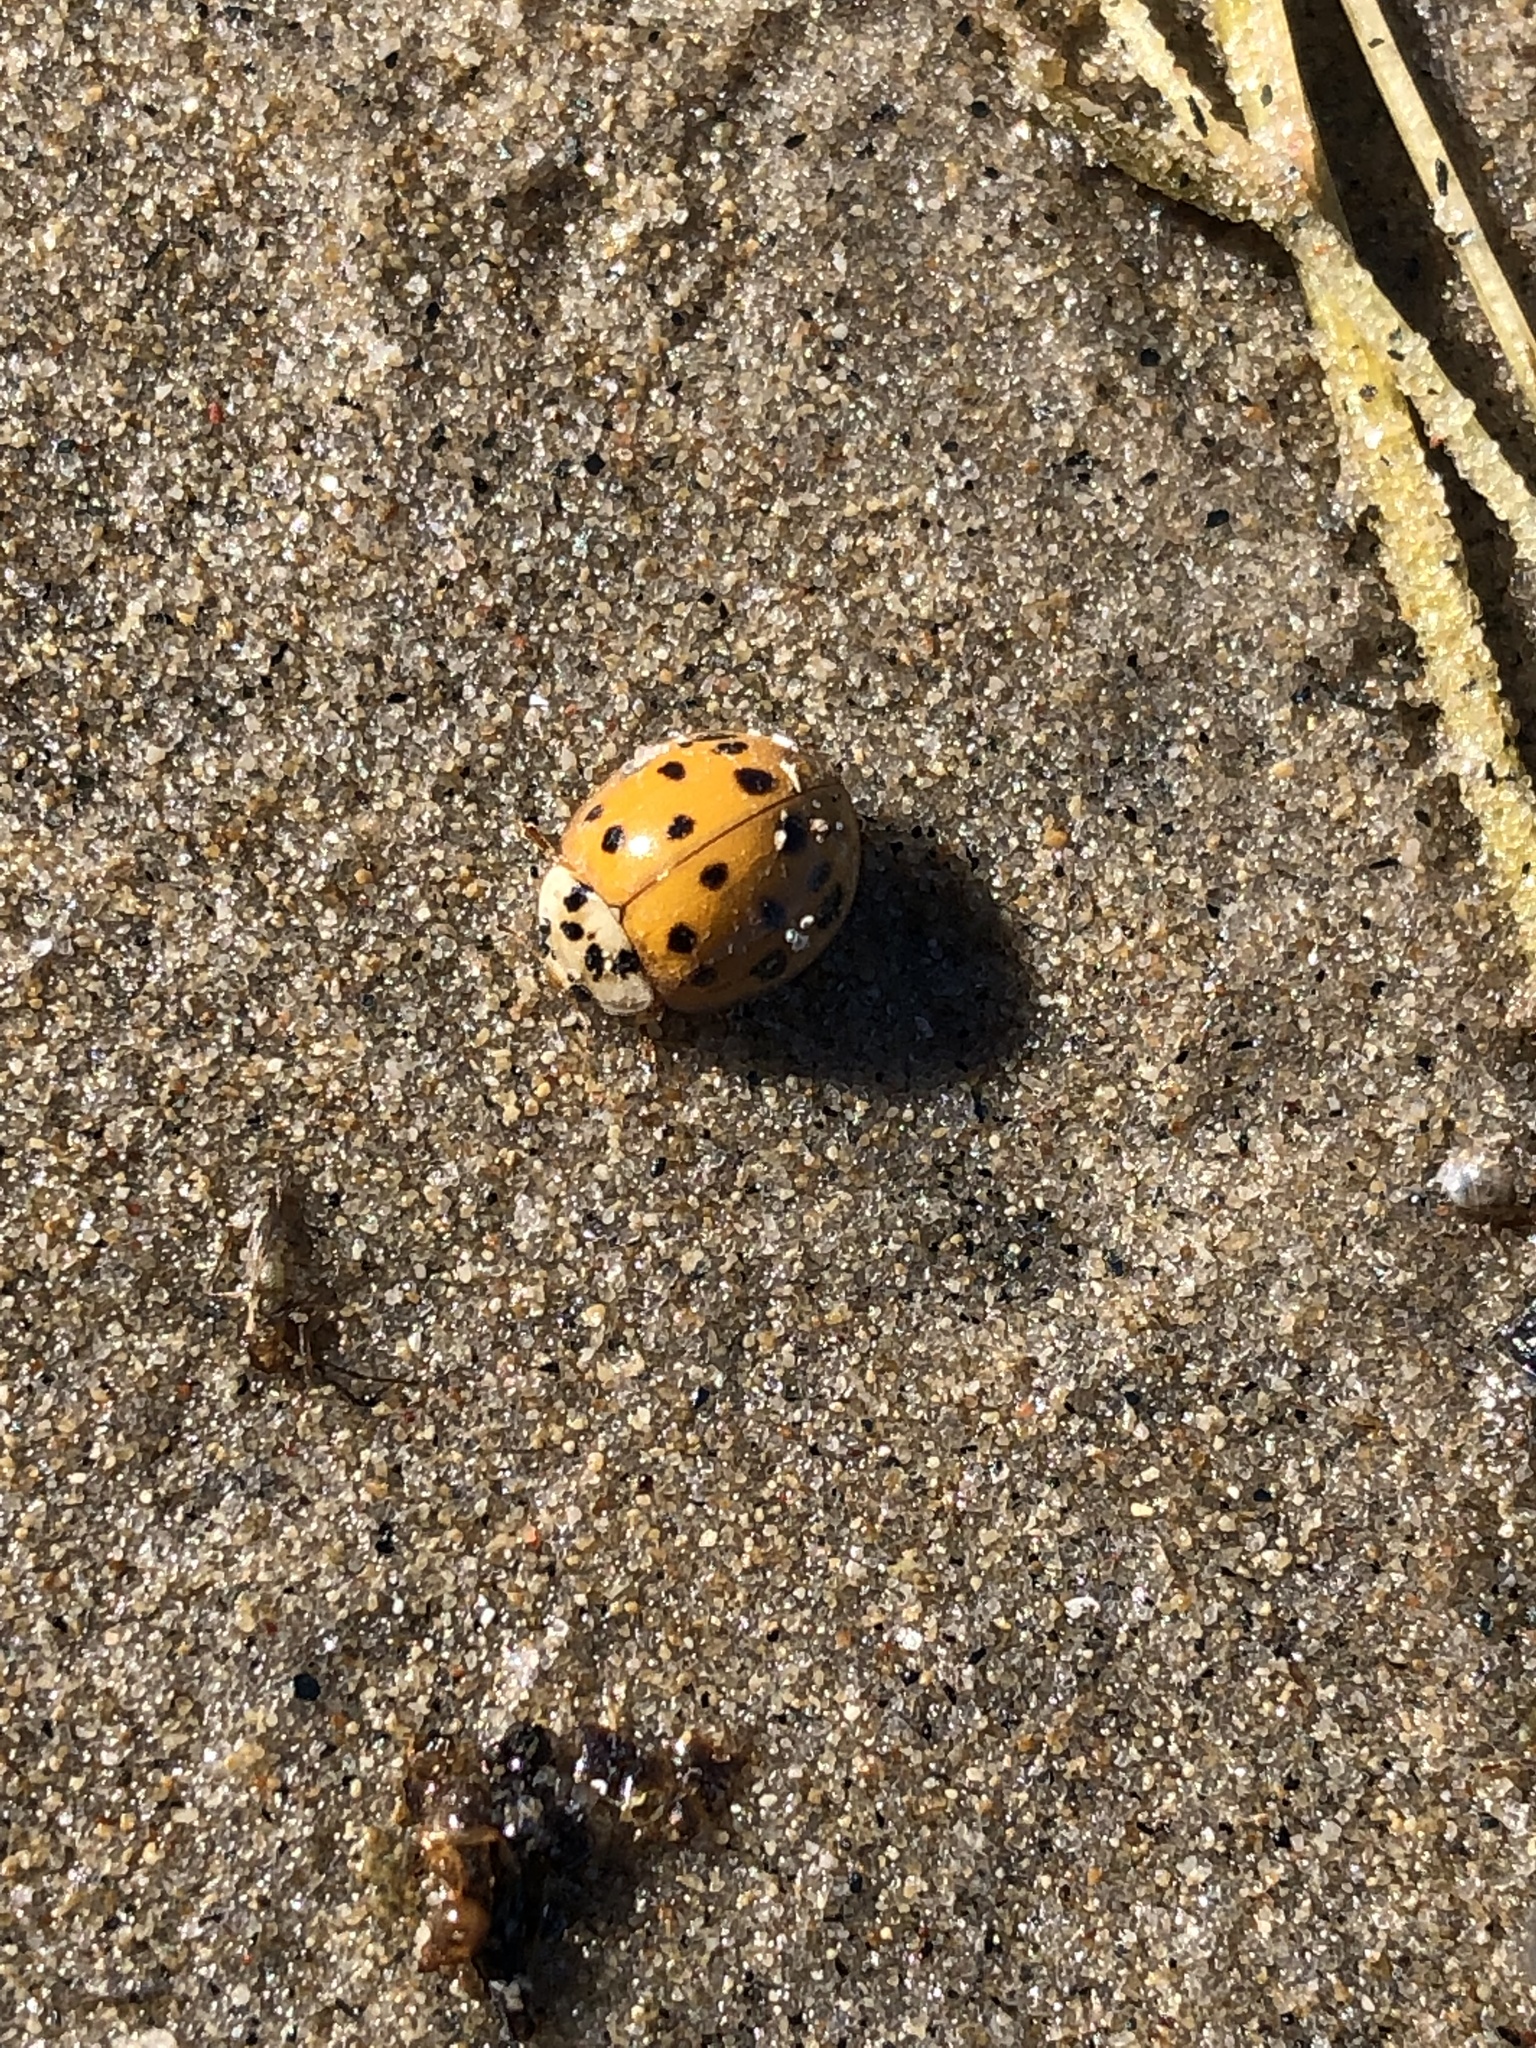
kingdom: Animalia
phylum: Arthropoda
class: Insecta
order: Coleoptera
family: Coccinellidae
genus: Harmonia
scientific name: Harmonia axyridis
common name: Harlequin ladybird
